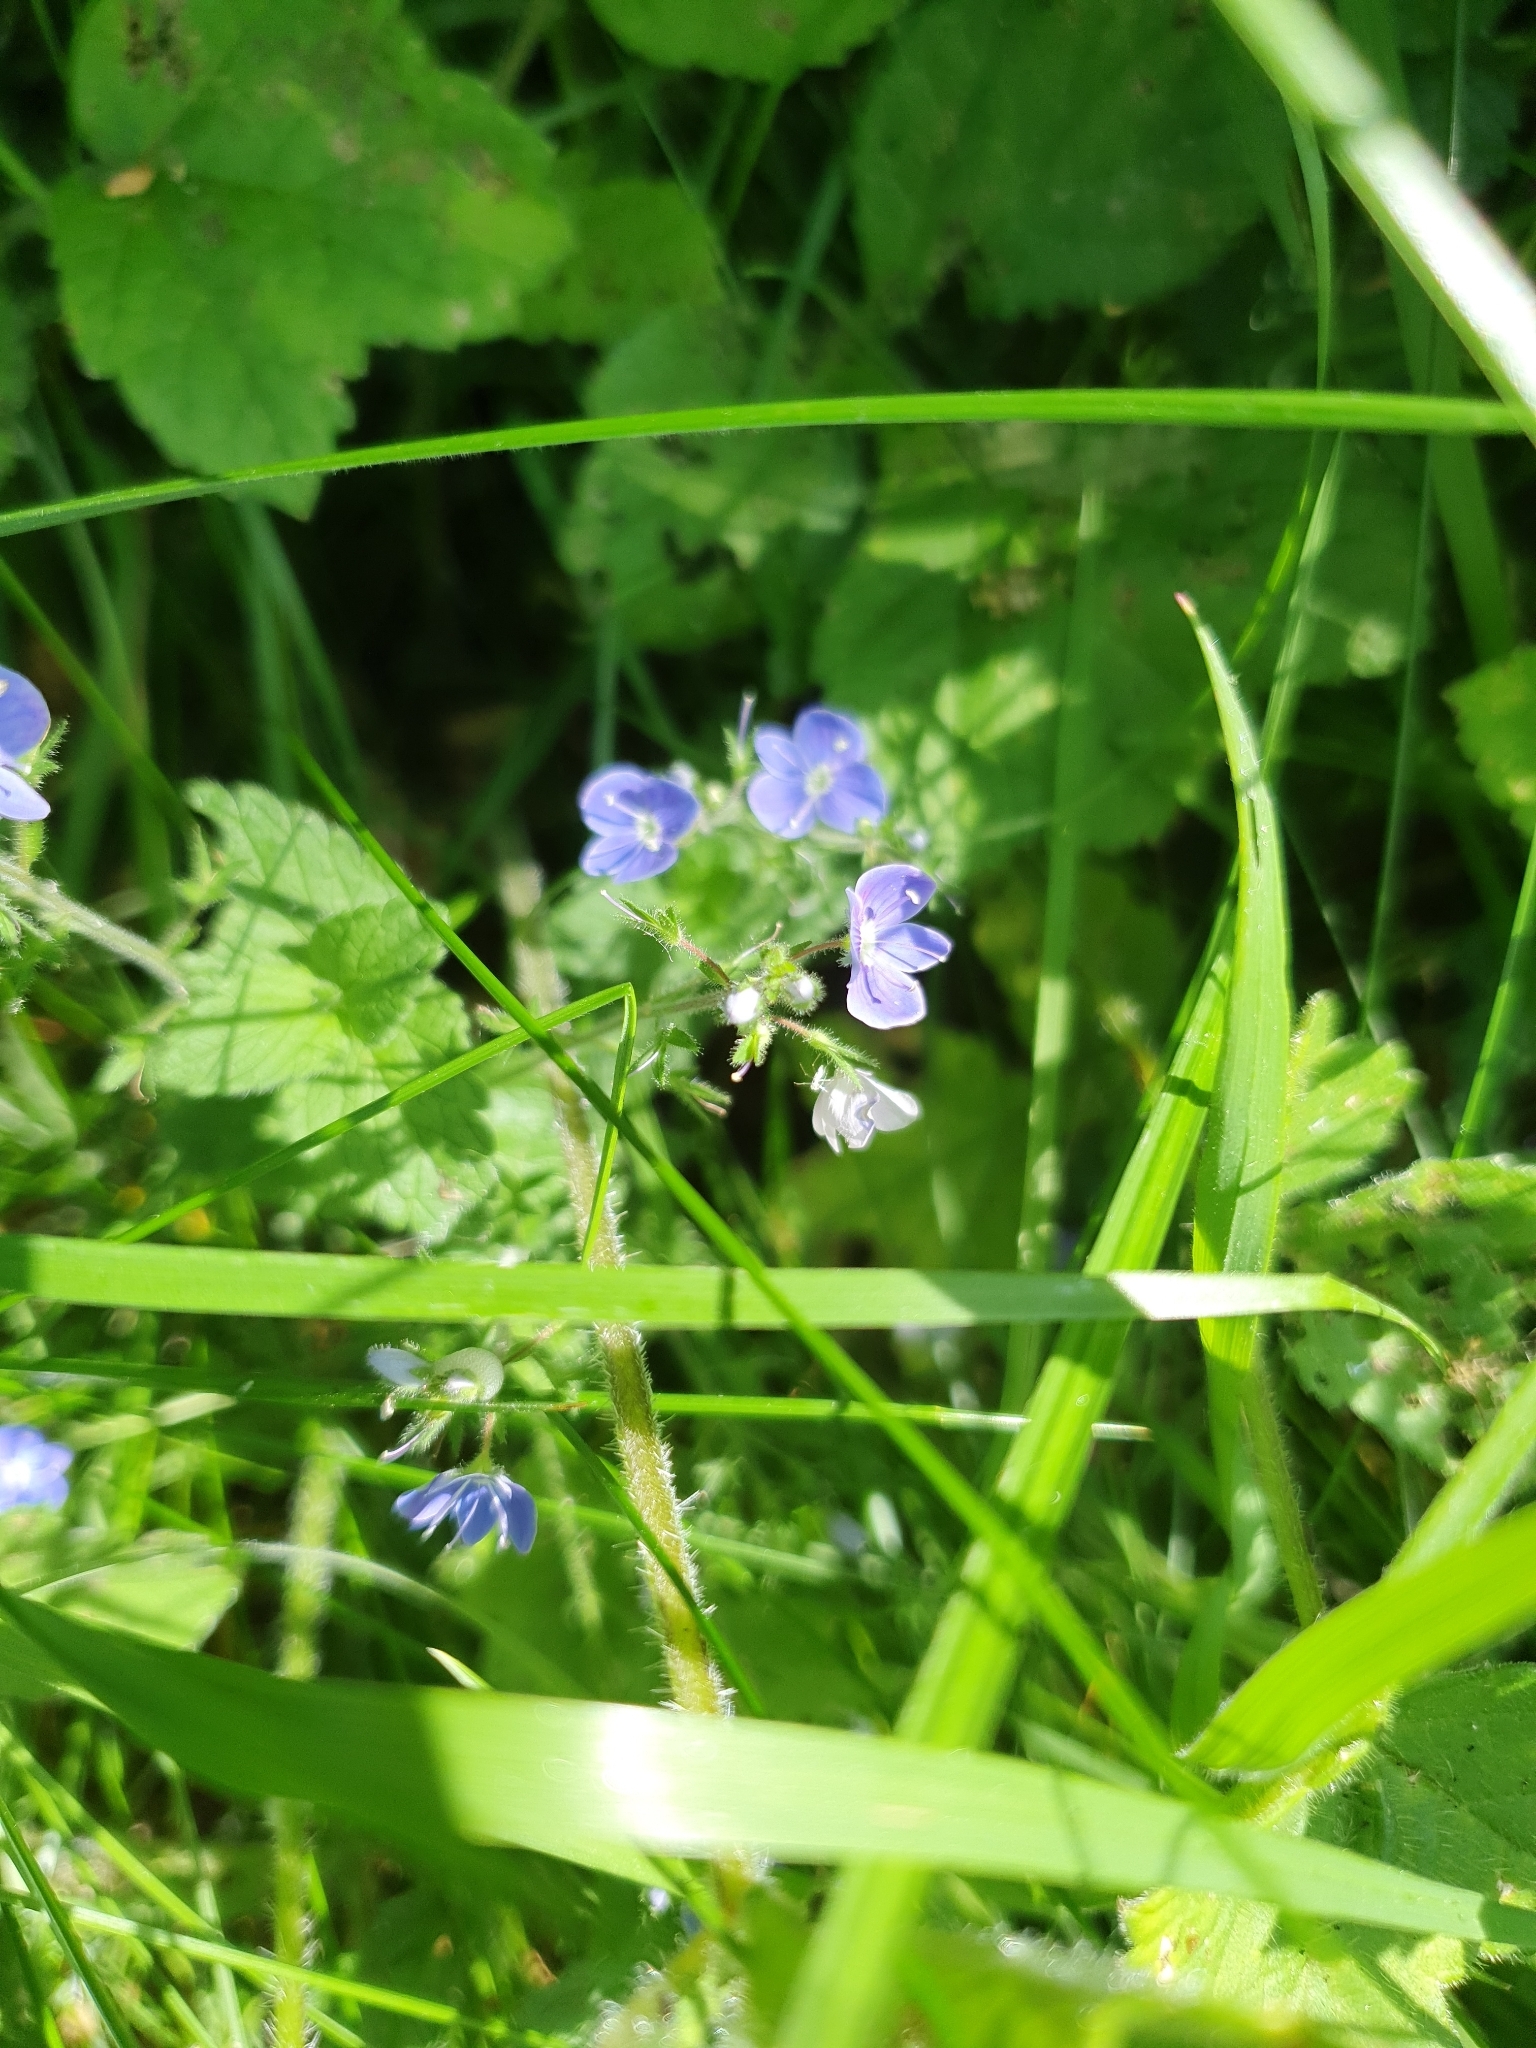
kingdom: Plantae
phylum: Tracheophyta
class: Magnoliopsida
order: Lamiales
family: Plantaginaceae
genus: Veronica
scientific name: Veronica chamaedrys
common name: Germander speedwell
